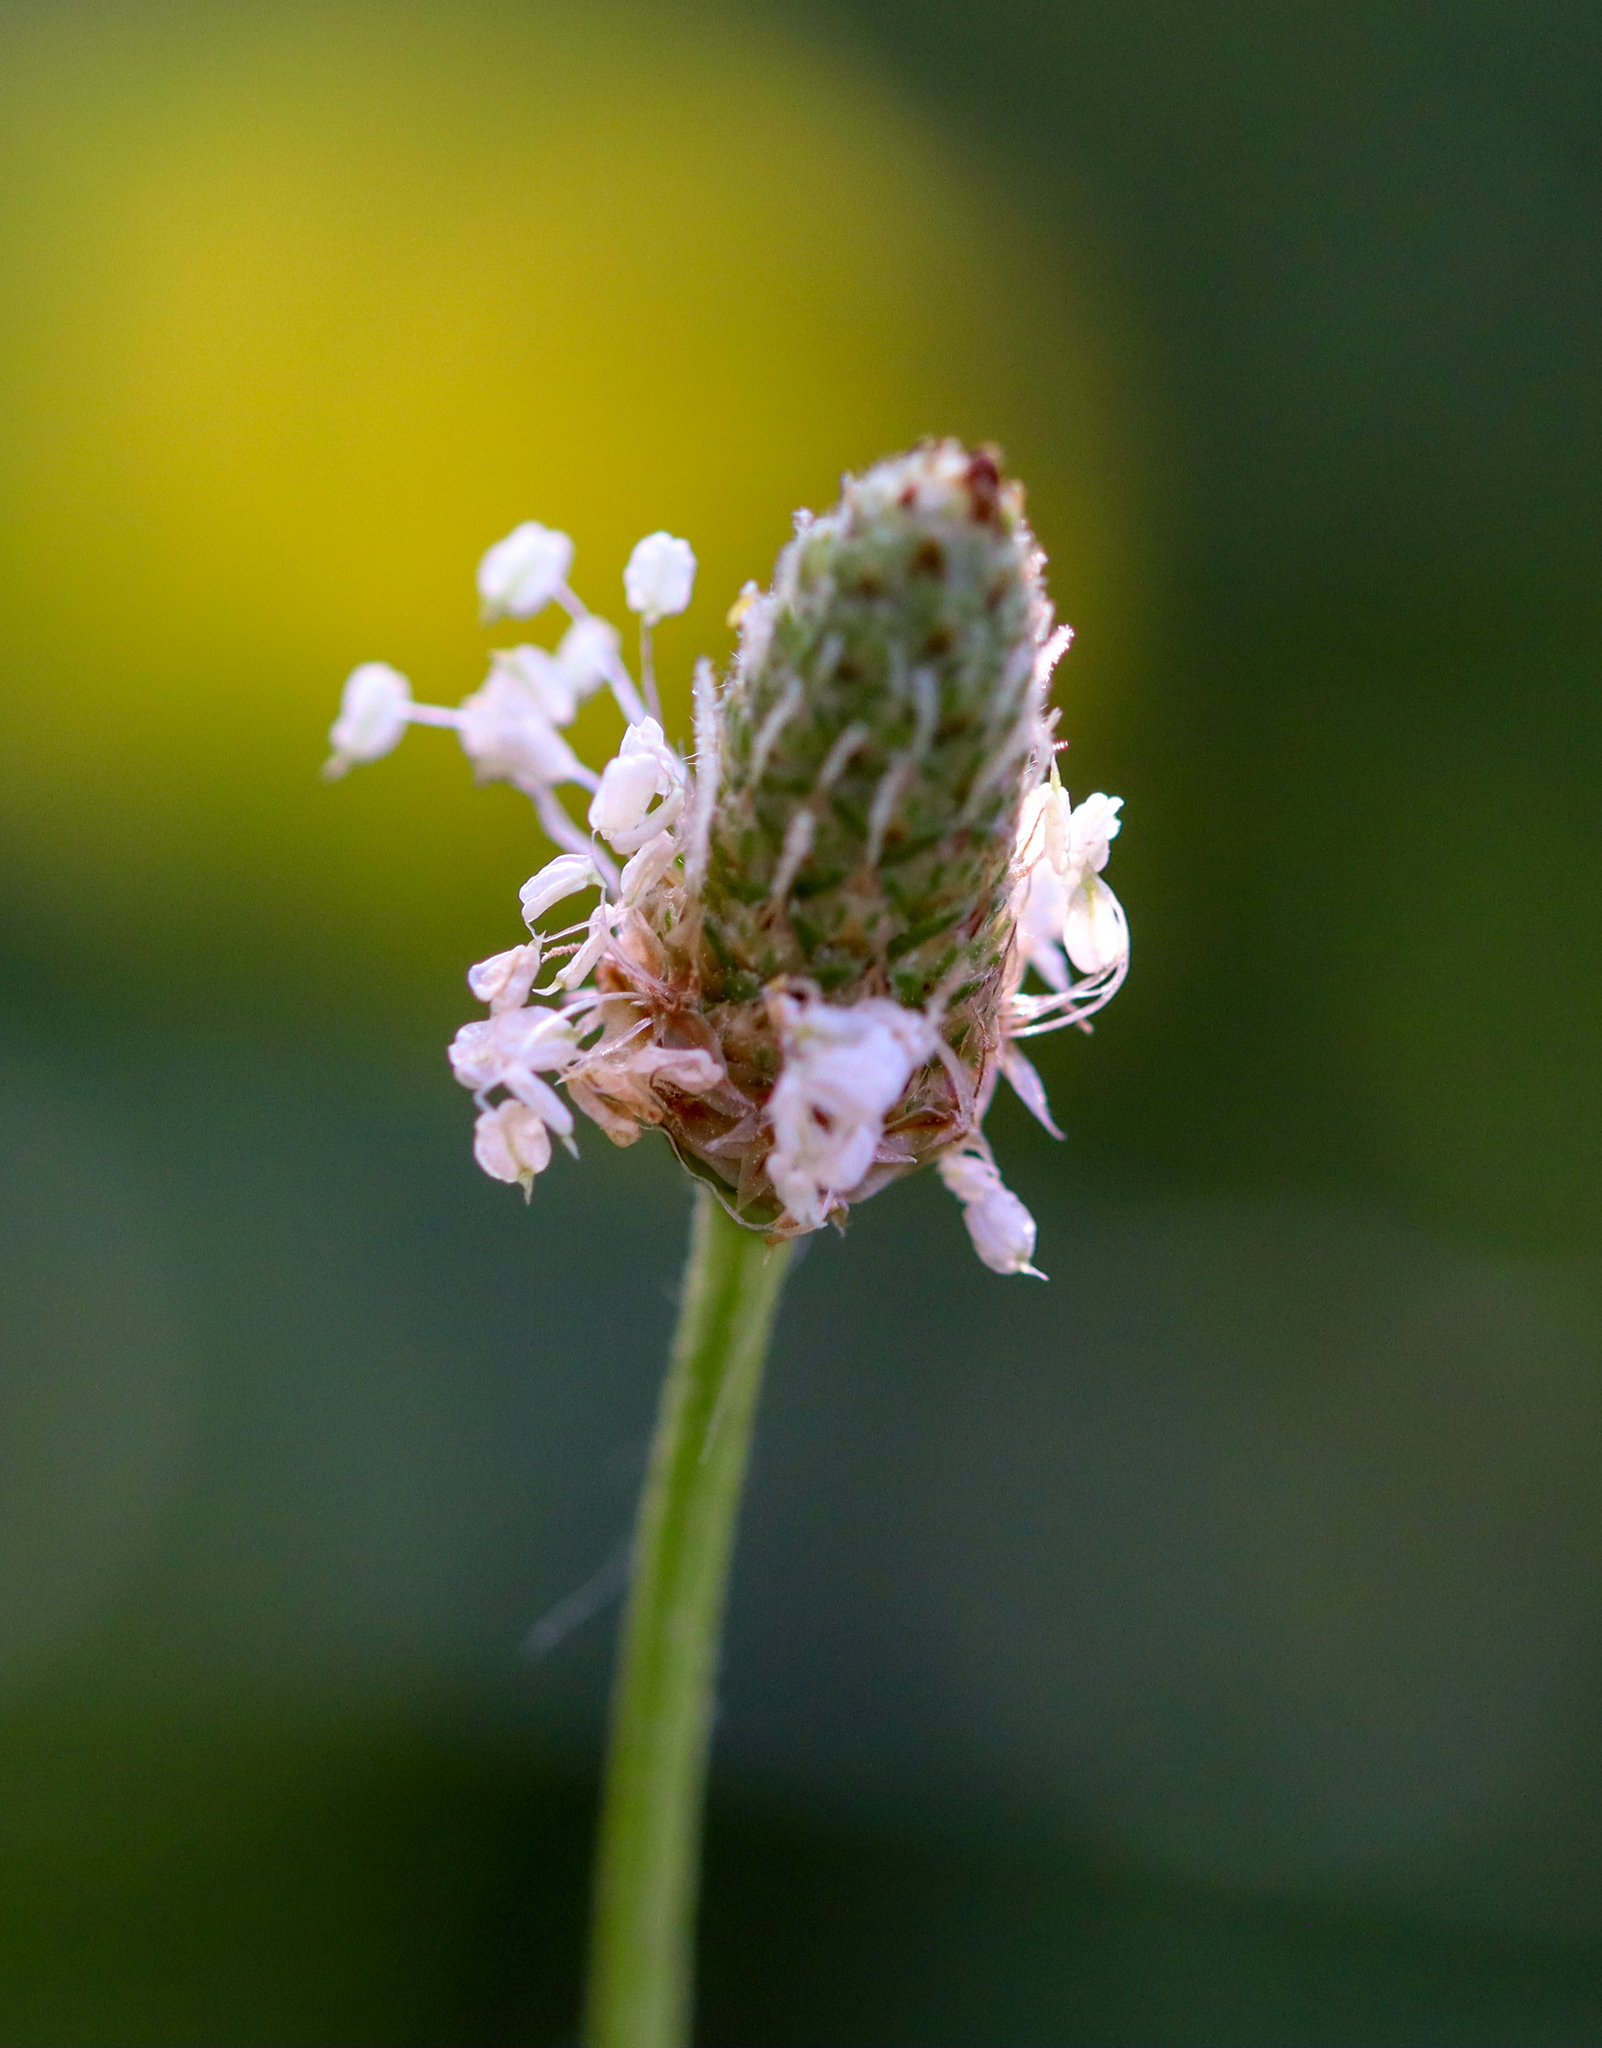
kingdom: Plantae
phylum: Tracheophyta
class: Magnoliopsida
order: Lamiales
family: Plantaginaceae
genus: Plantago
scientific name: Plantago lanceolata
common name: Ribwort plantain
